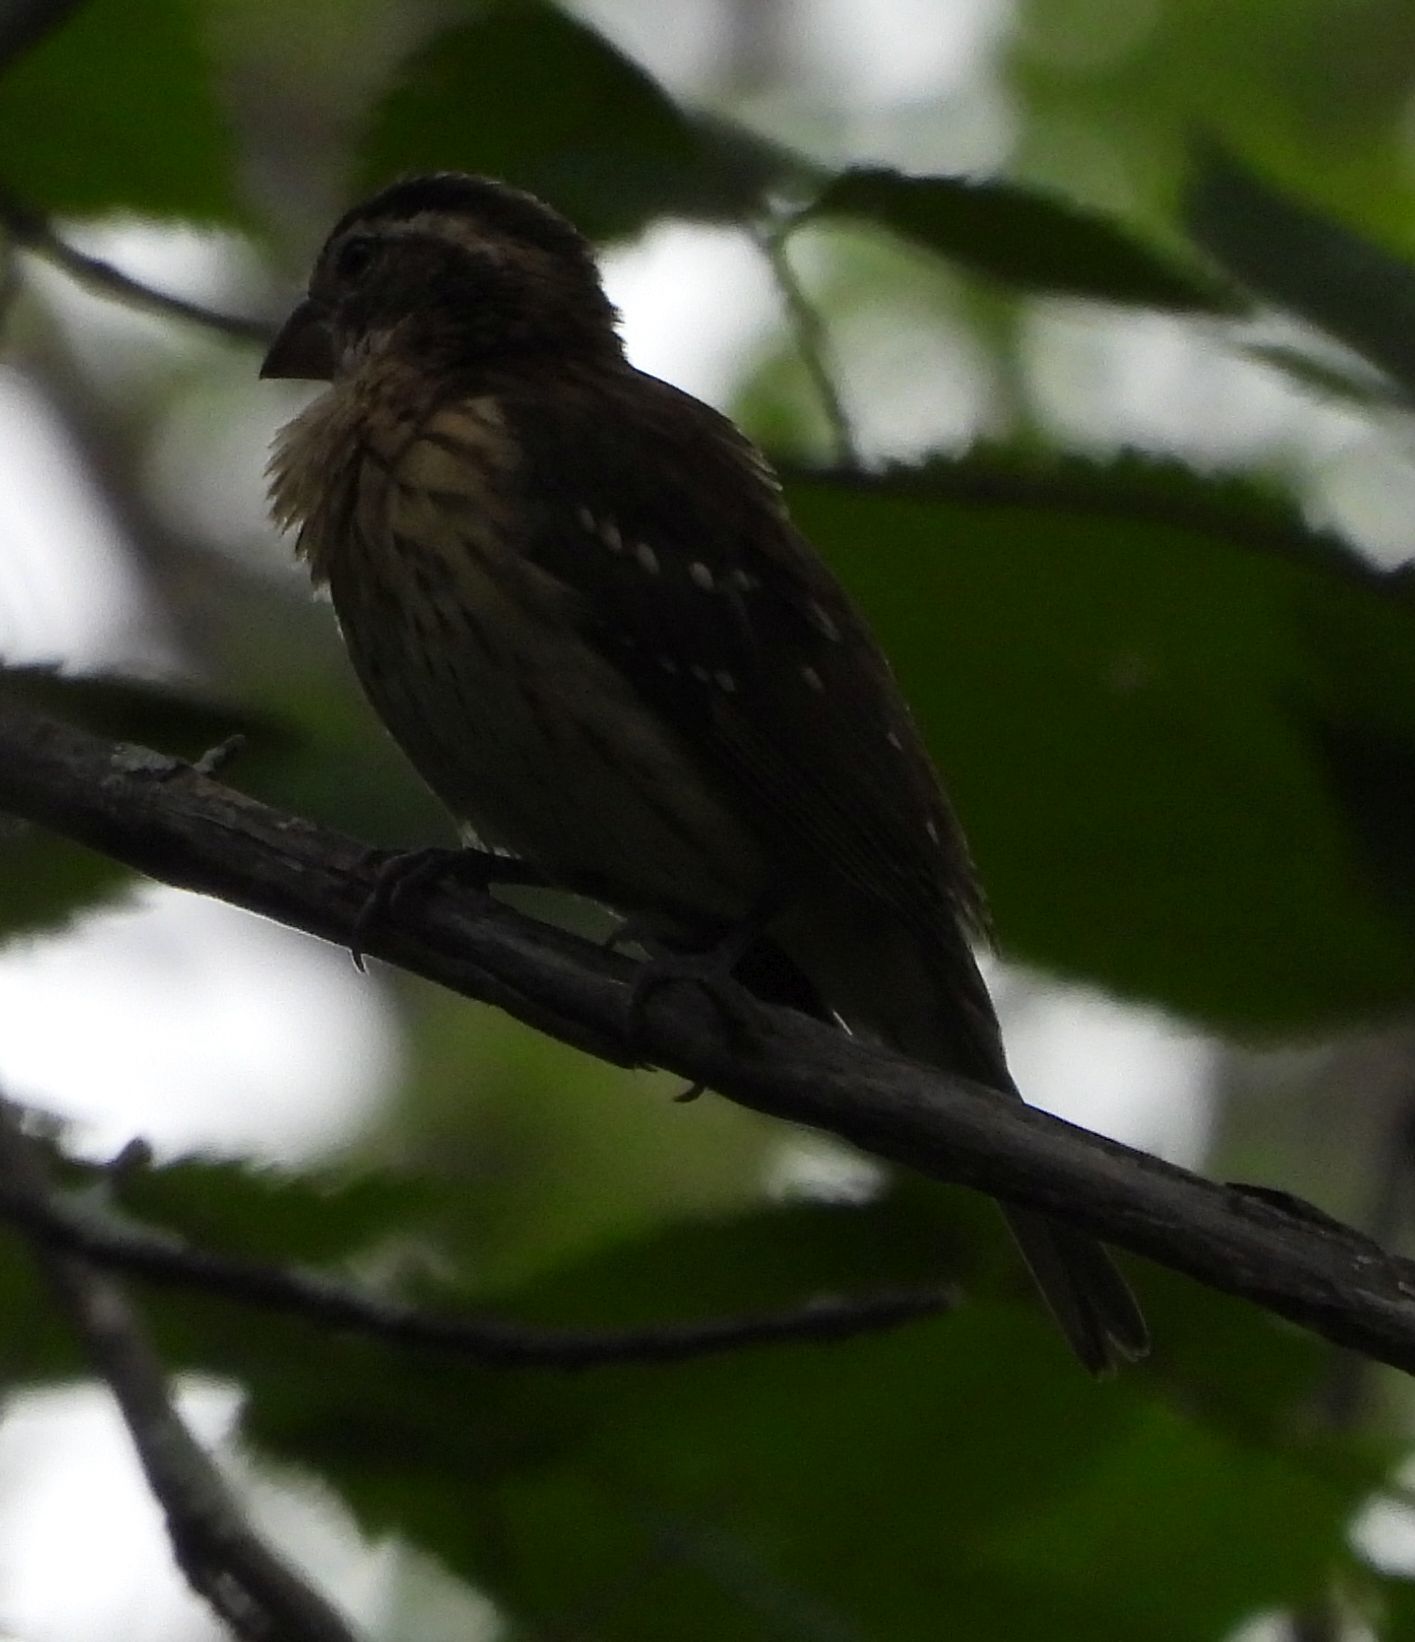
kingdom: Animalia
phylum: Chordata
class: Aves
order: Passeriformes
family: Cardinalidae
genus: Pheucticus
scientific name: Pheucticus ludovicianus
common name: Rose-breasted grosbeak
